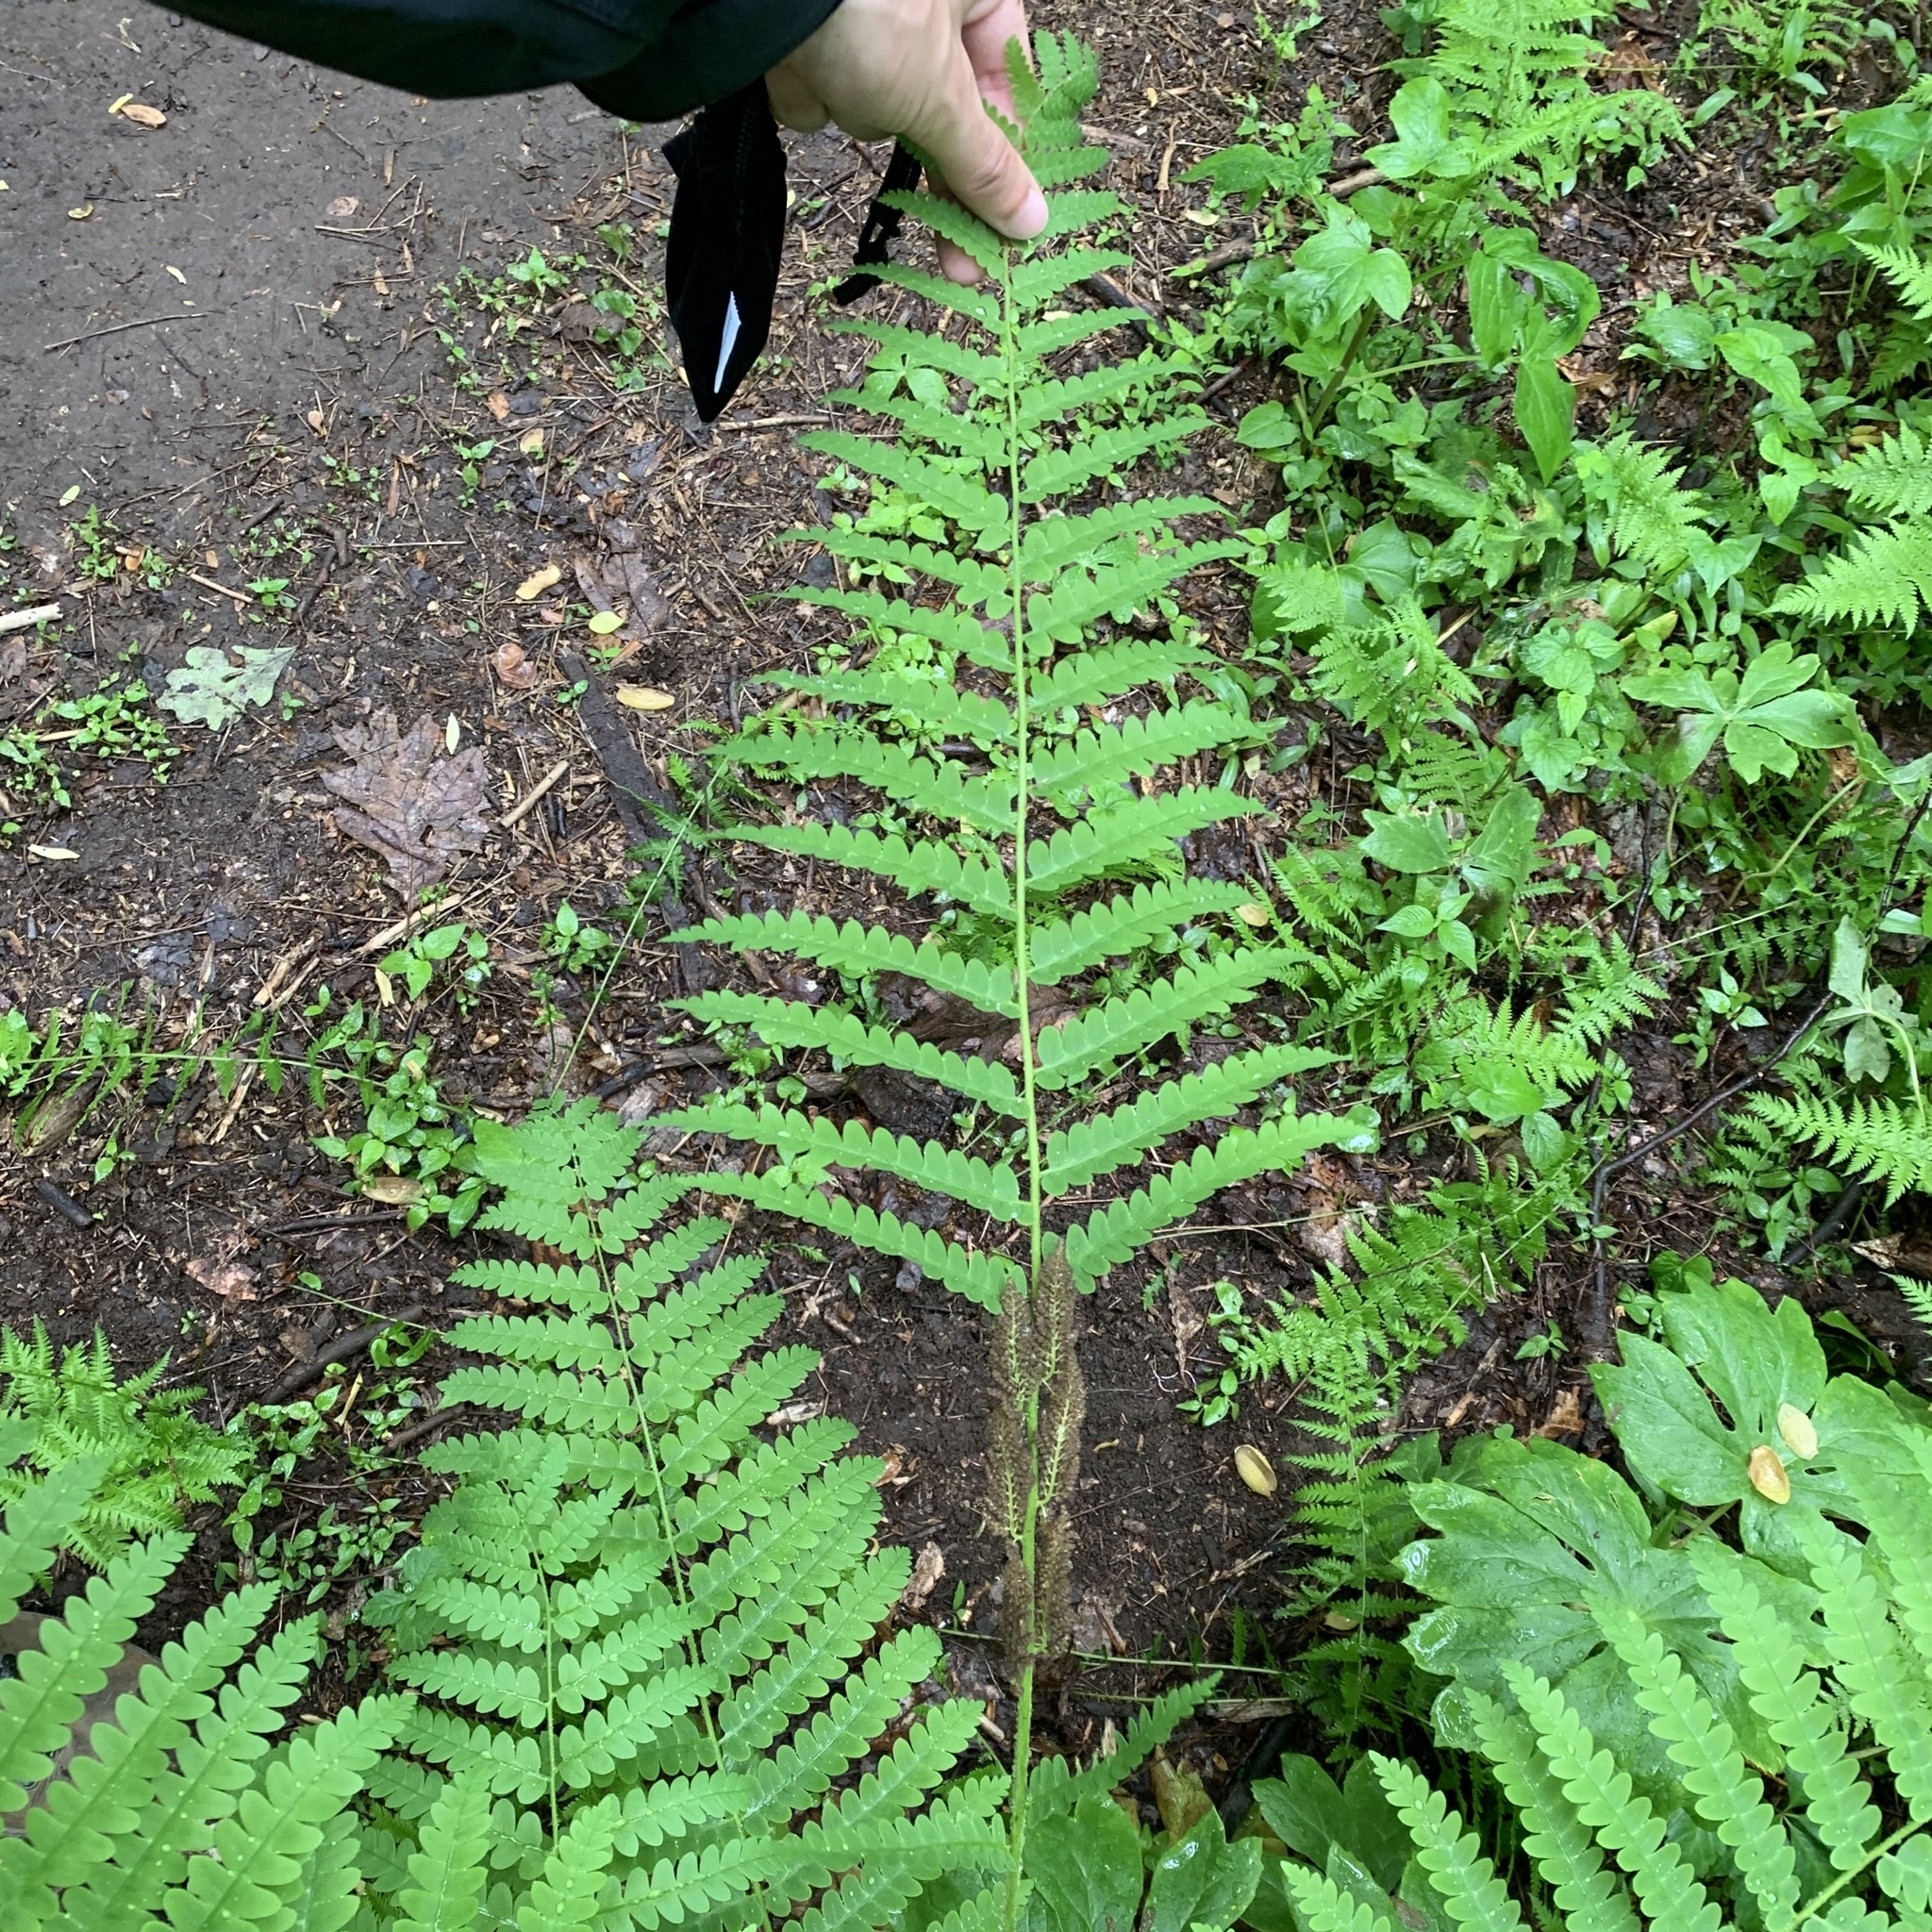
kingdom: Plantae
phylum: Tracheophyta
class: Polypodiopsida
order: Osmundales
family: Osmundaceae
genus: Claytosmunda
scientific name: Claytosmunda claytoniana
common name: Clayton's fern
